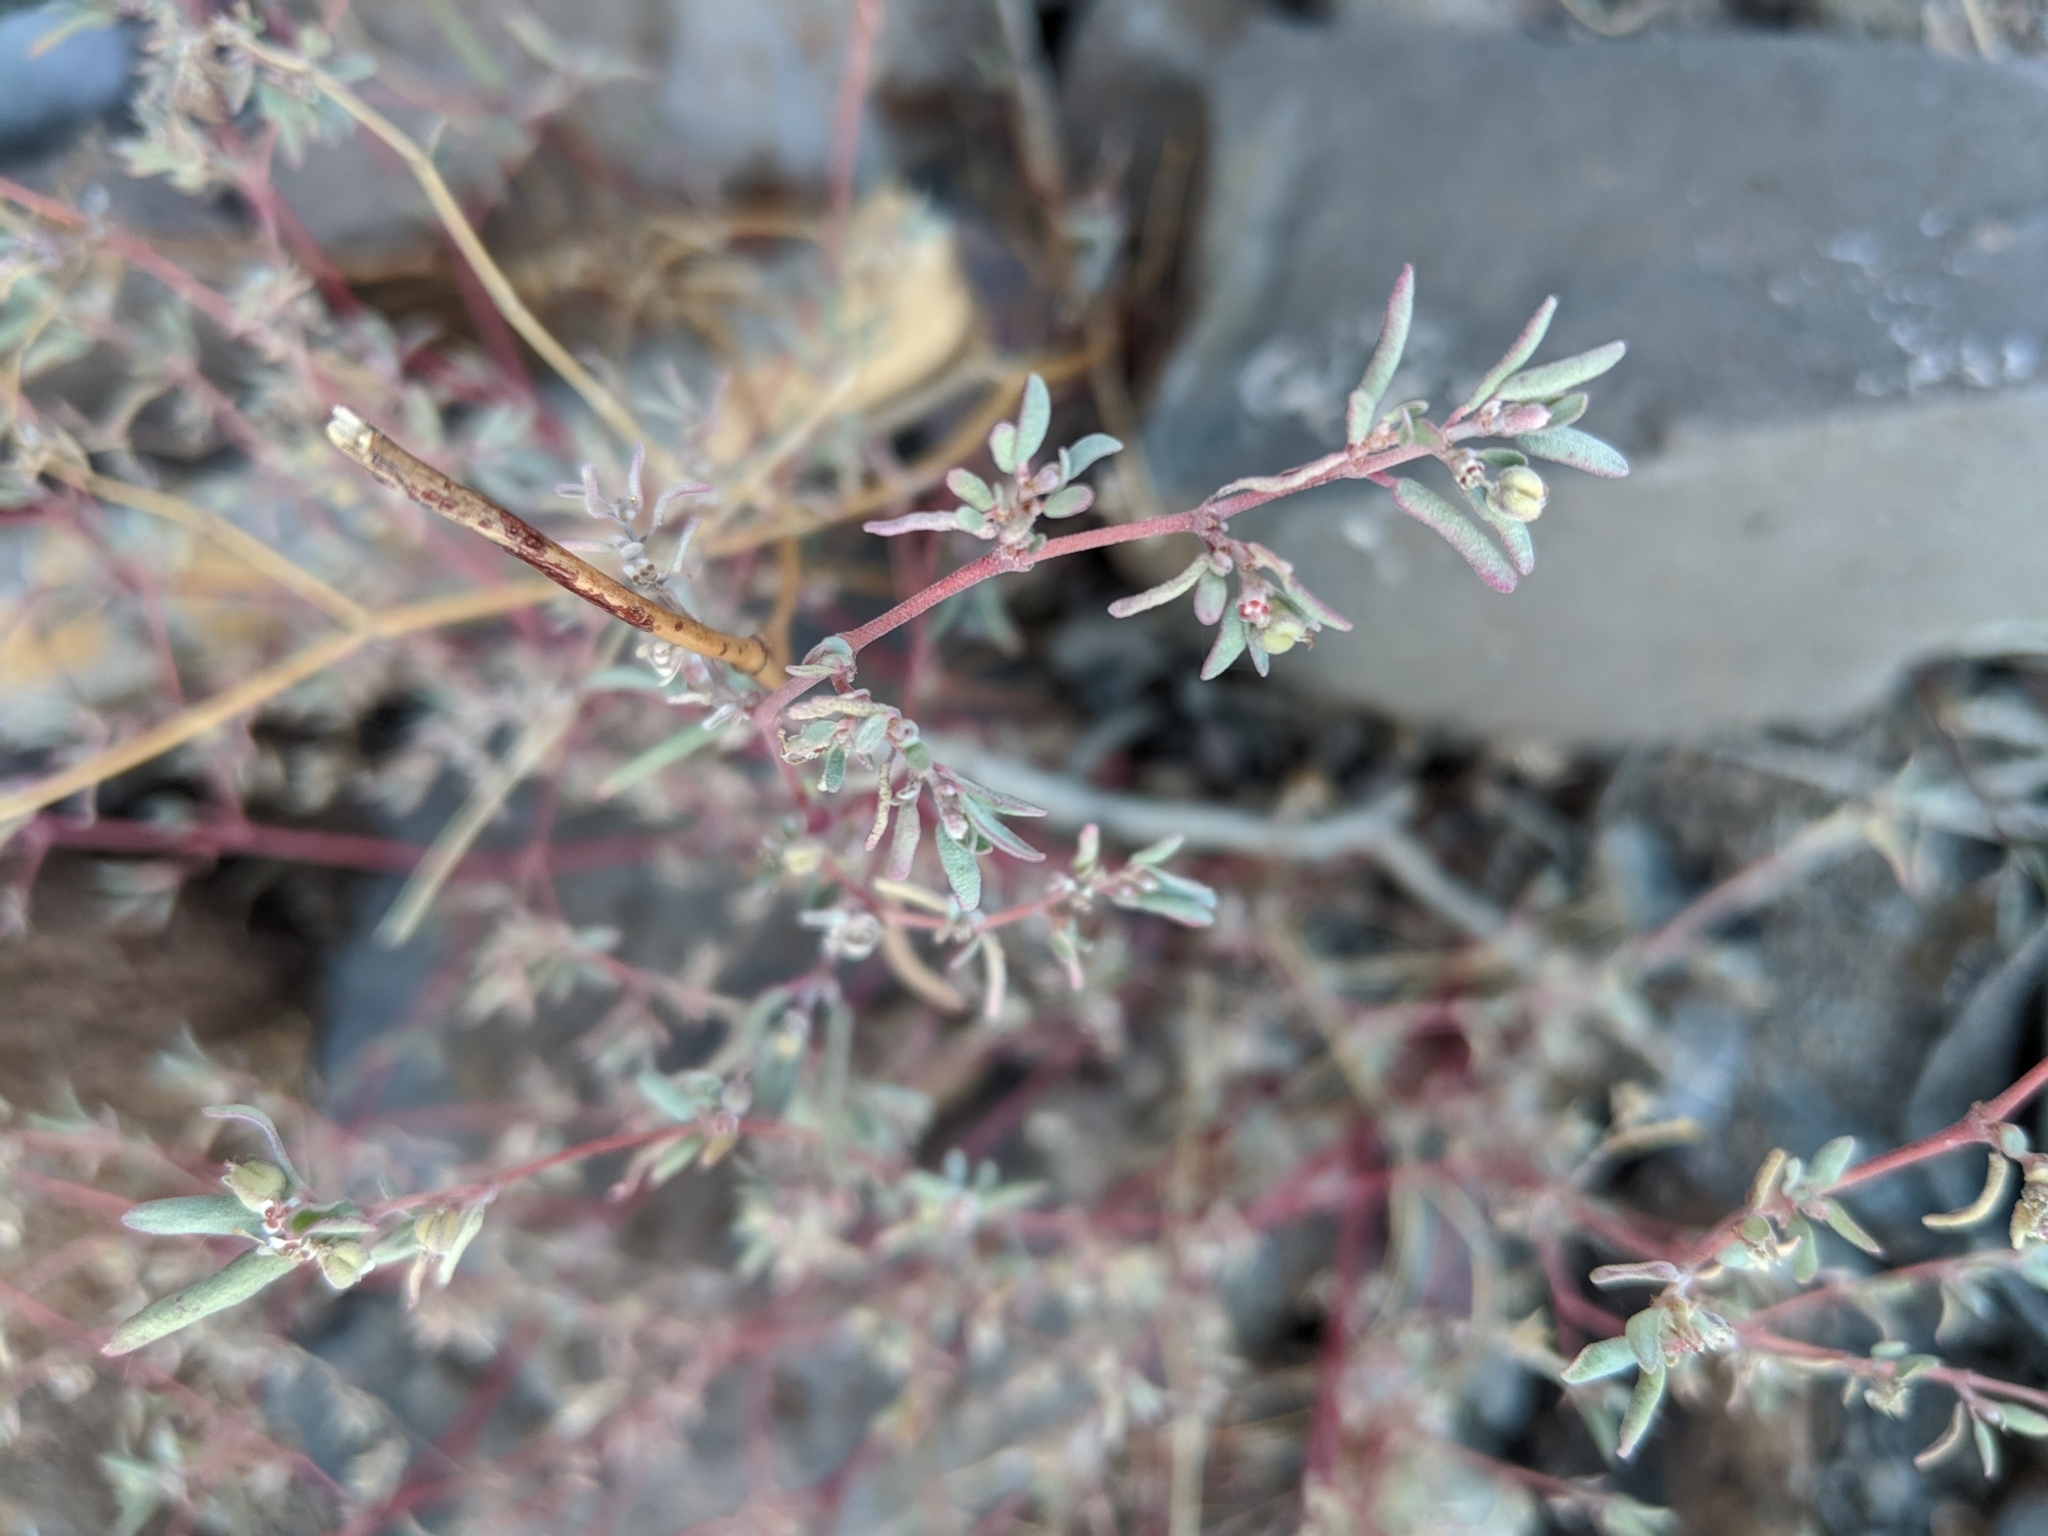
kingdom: Plantae
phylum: Tracheophyta
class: Magnoliopsida
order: Malpighiales
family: Euphorbiaceae
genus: Euphorbia
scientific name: Euphorbia pediculifera
